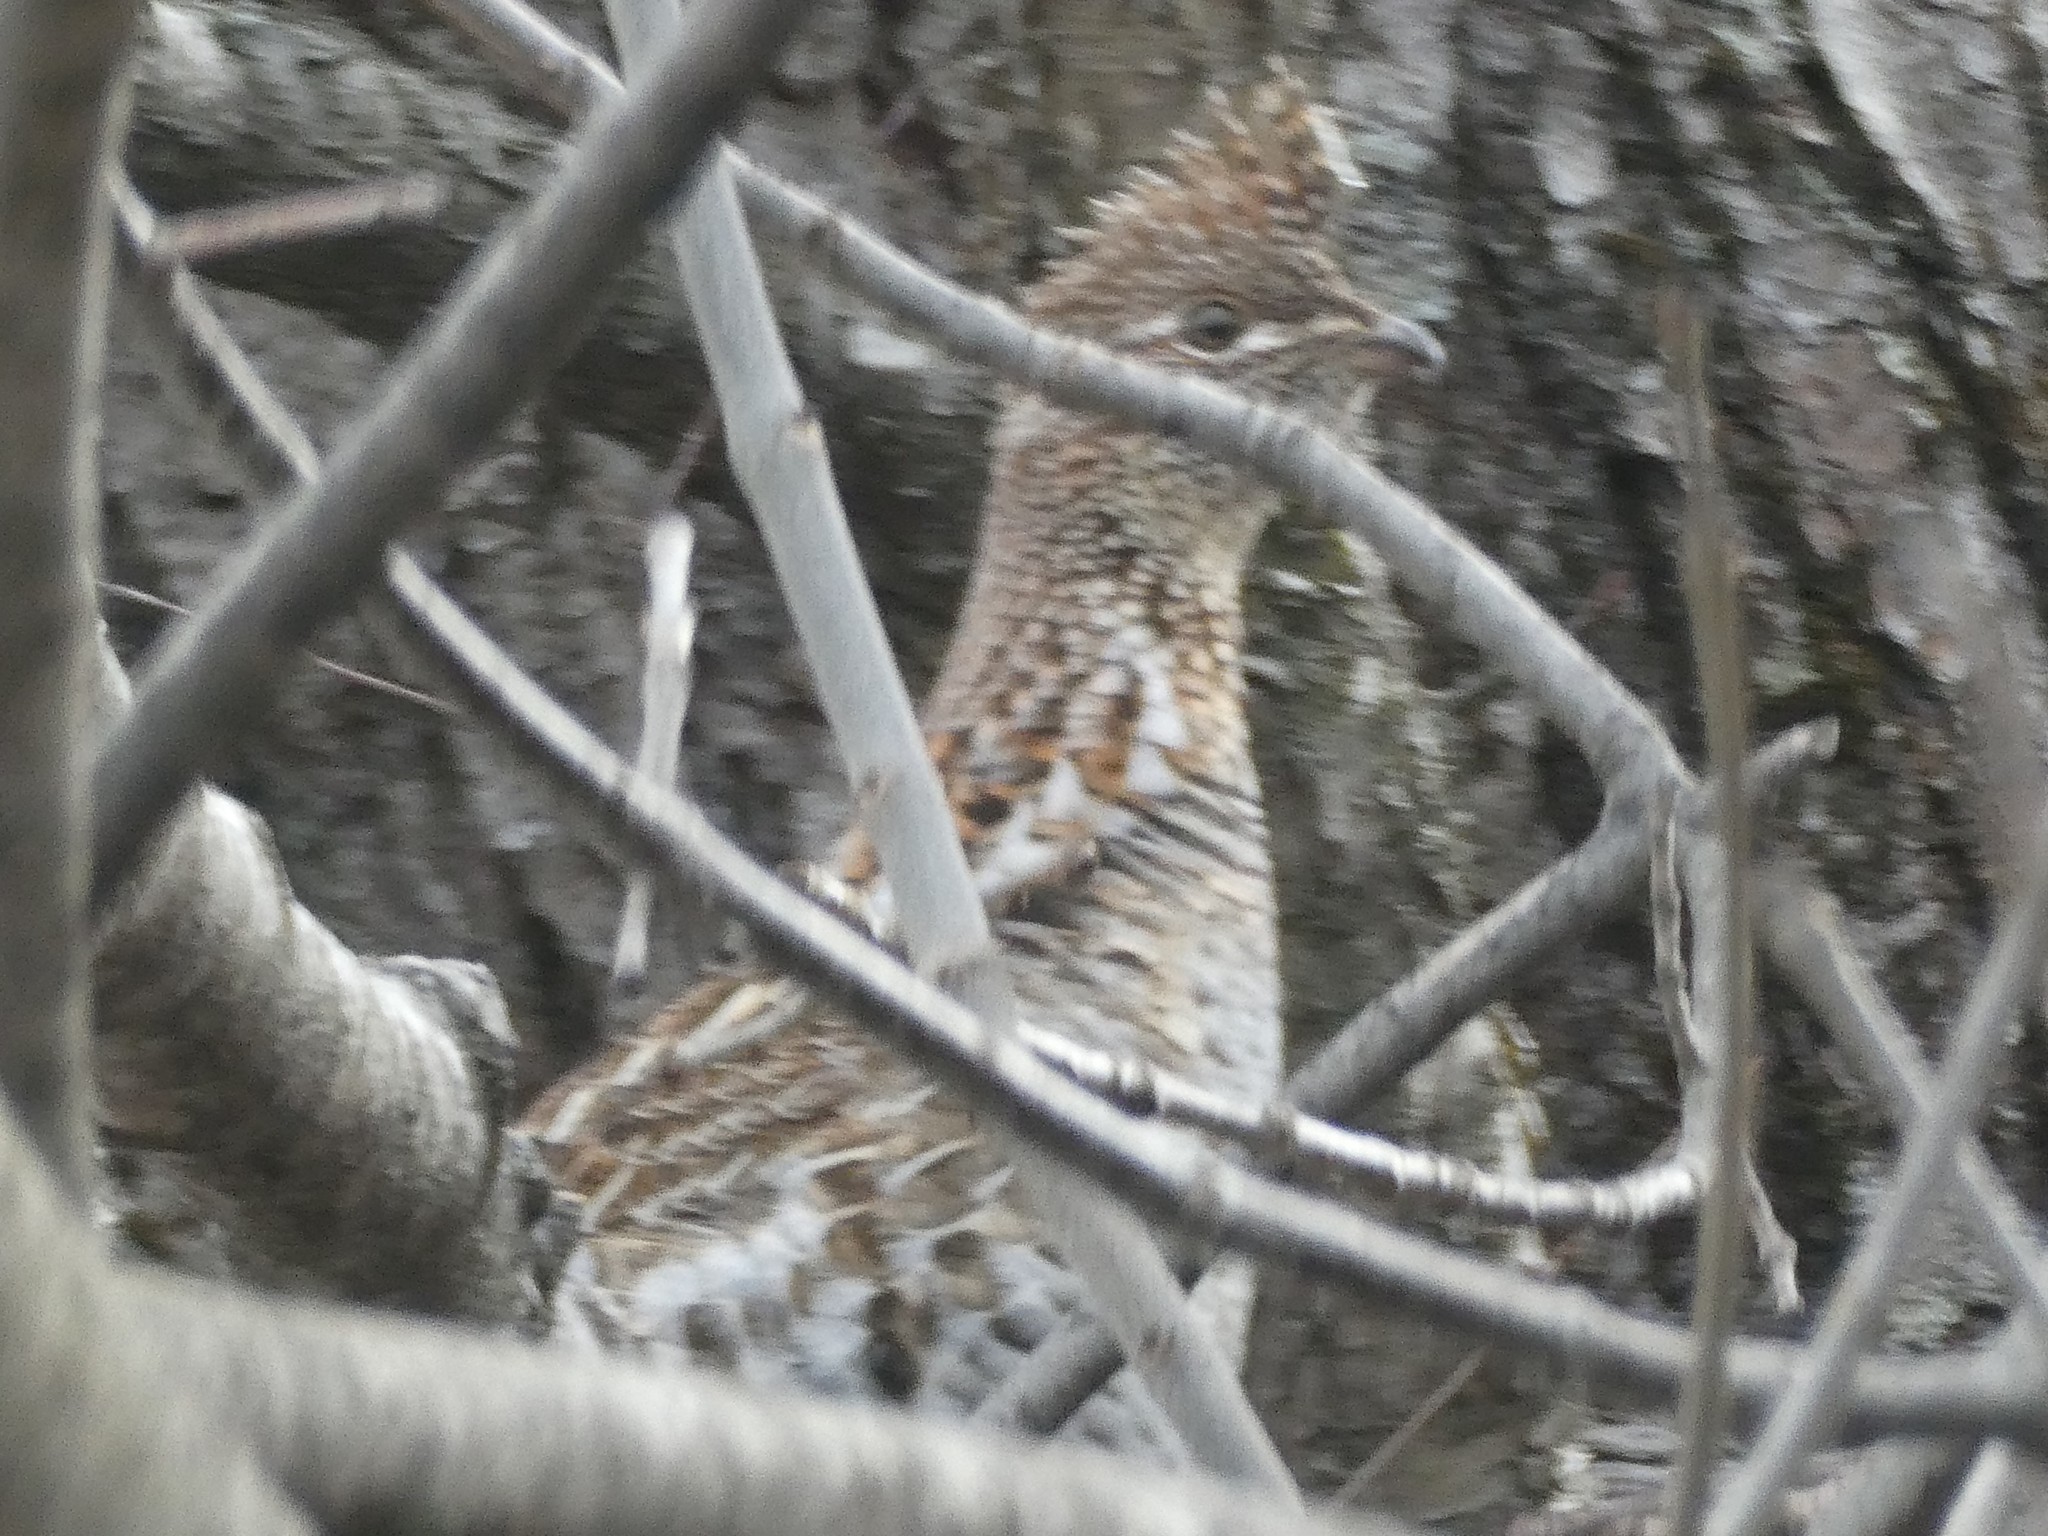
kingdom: Animalia
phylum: Chordata
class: Aves
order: Galliformes
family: Phasianidae
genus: Bonasa
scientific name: Bonasa umbellus
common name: Ruffed grouse
